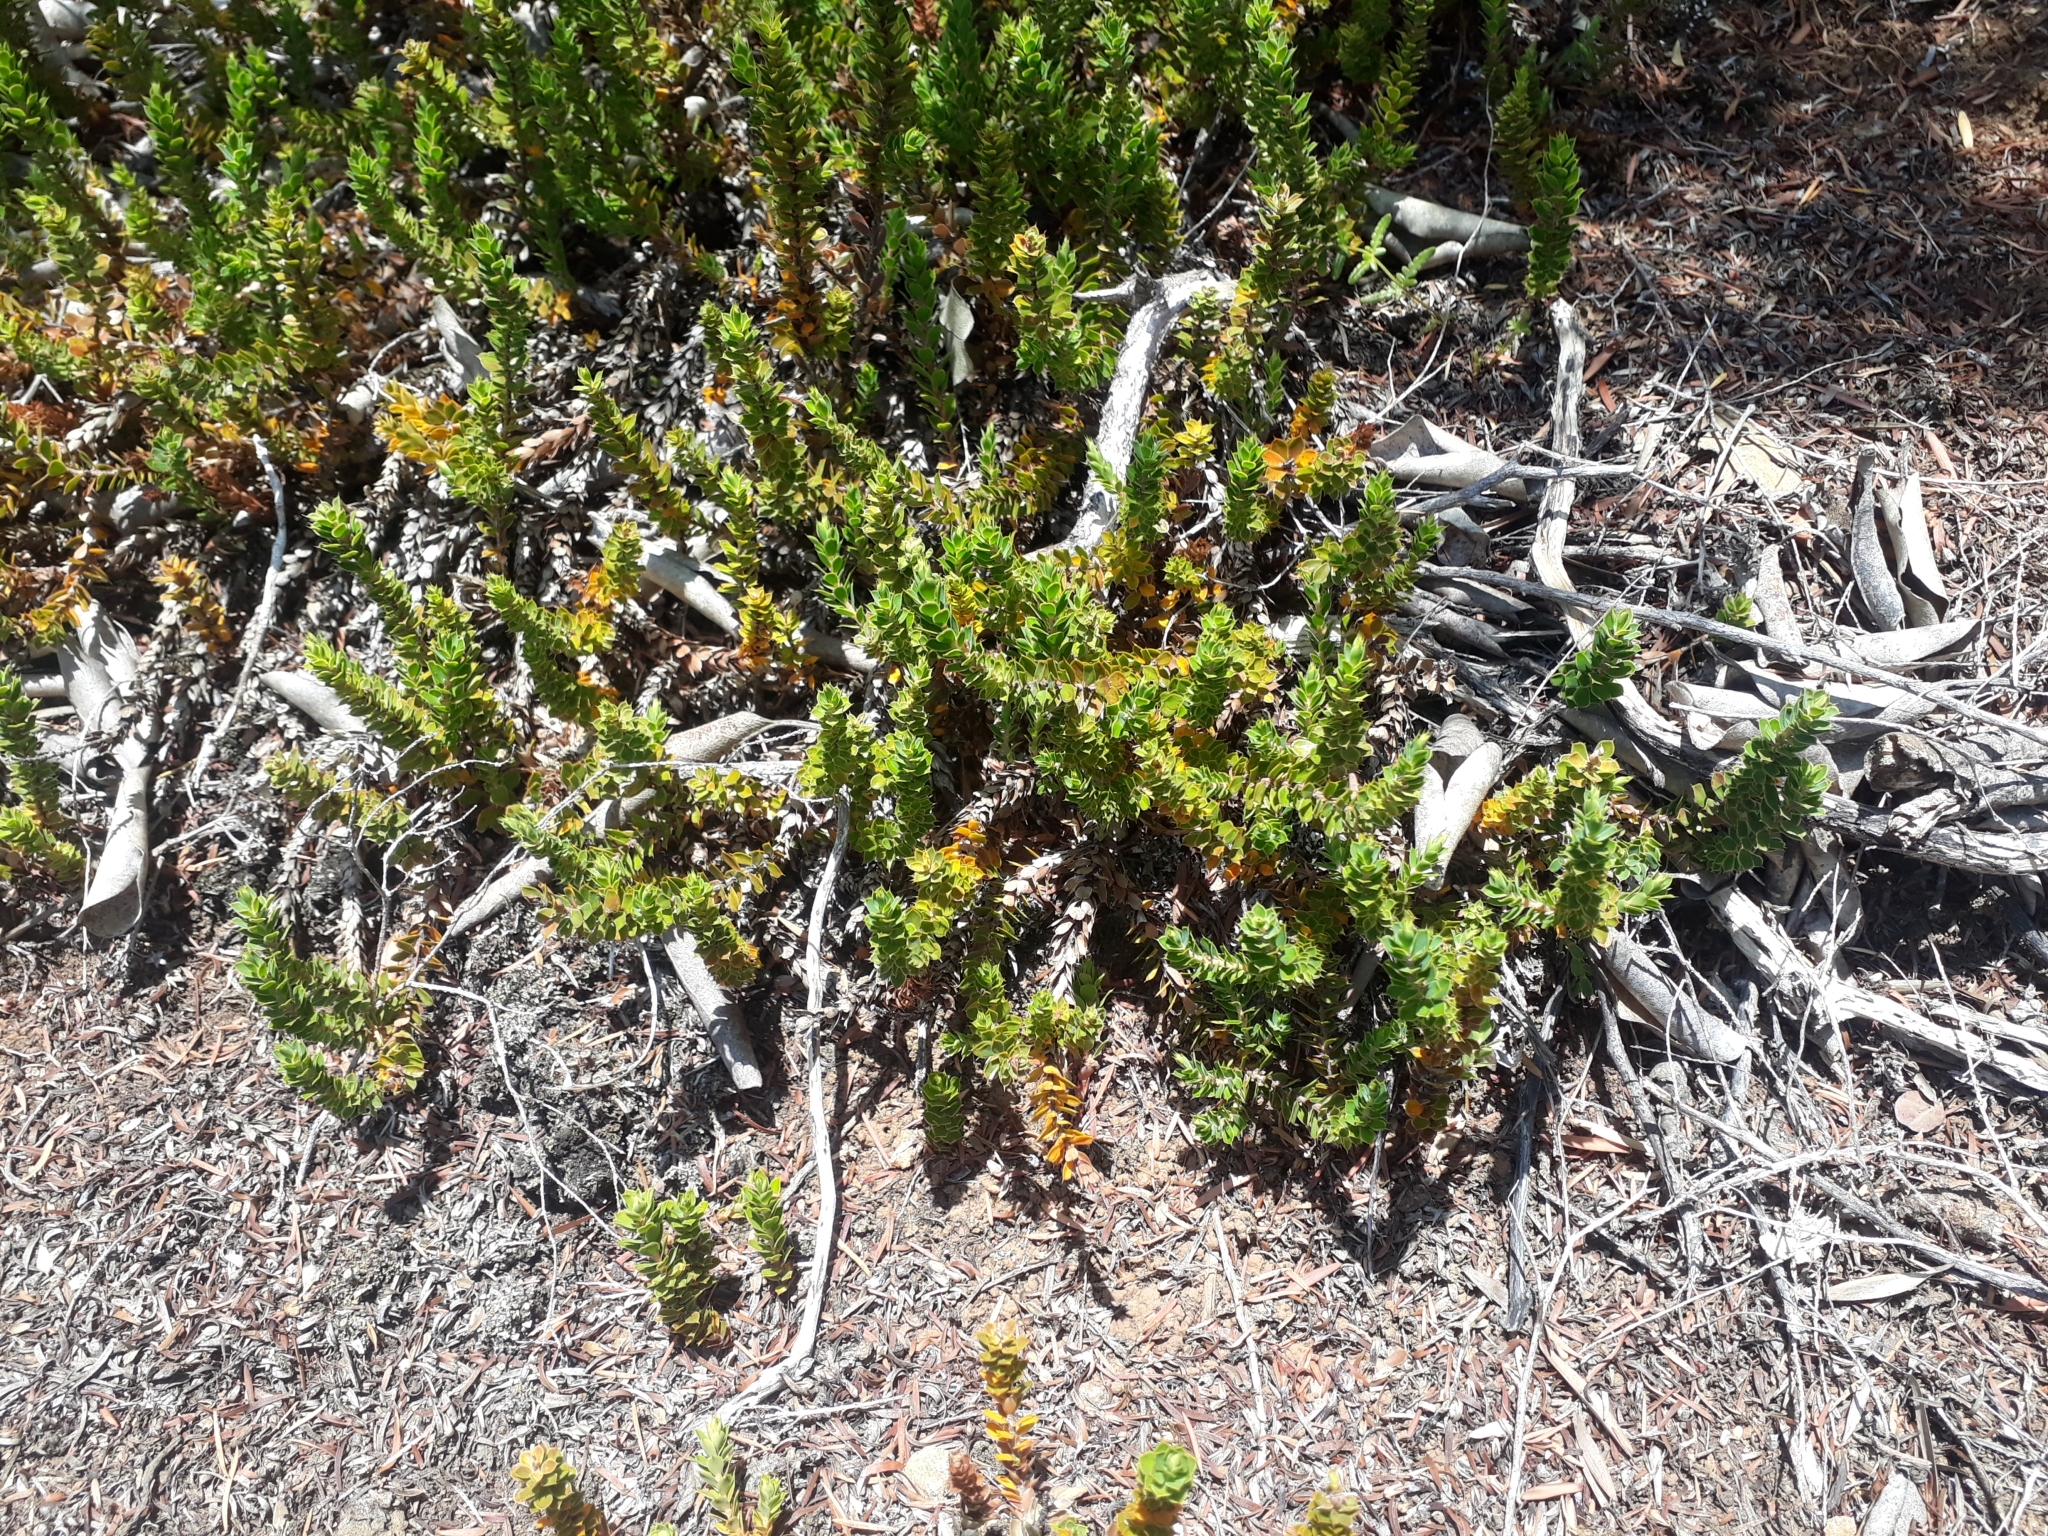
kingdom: Plantae
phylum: Tracheophyta
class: Magnoliopsida
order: Ericales
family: Ericaceae
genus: Styphelia
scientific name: Styphelia nesophila
